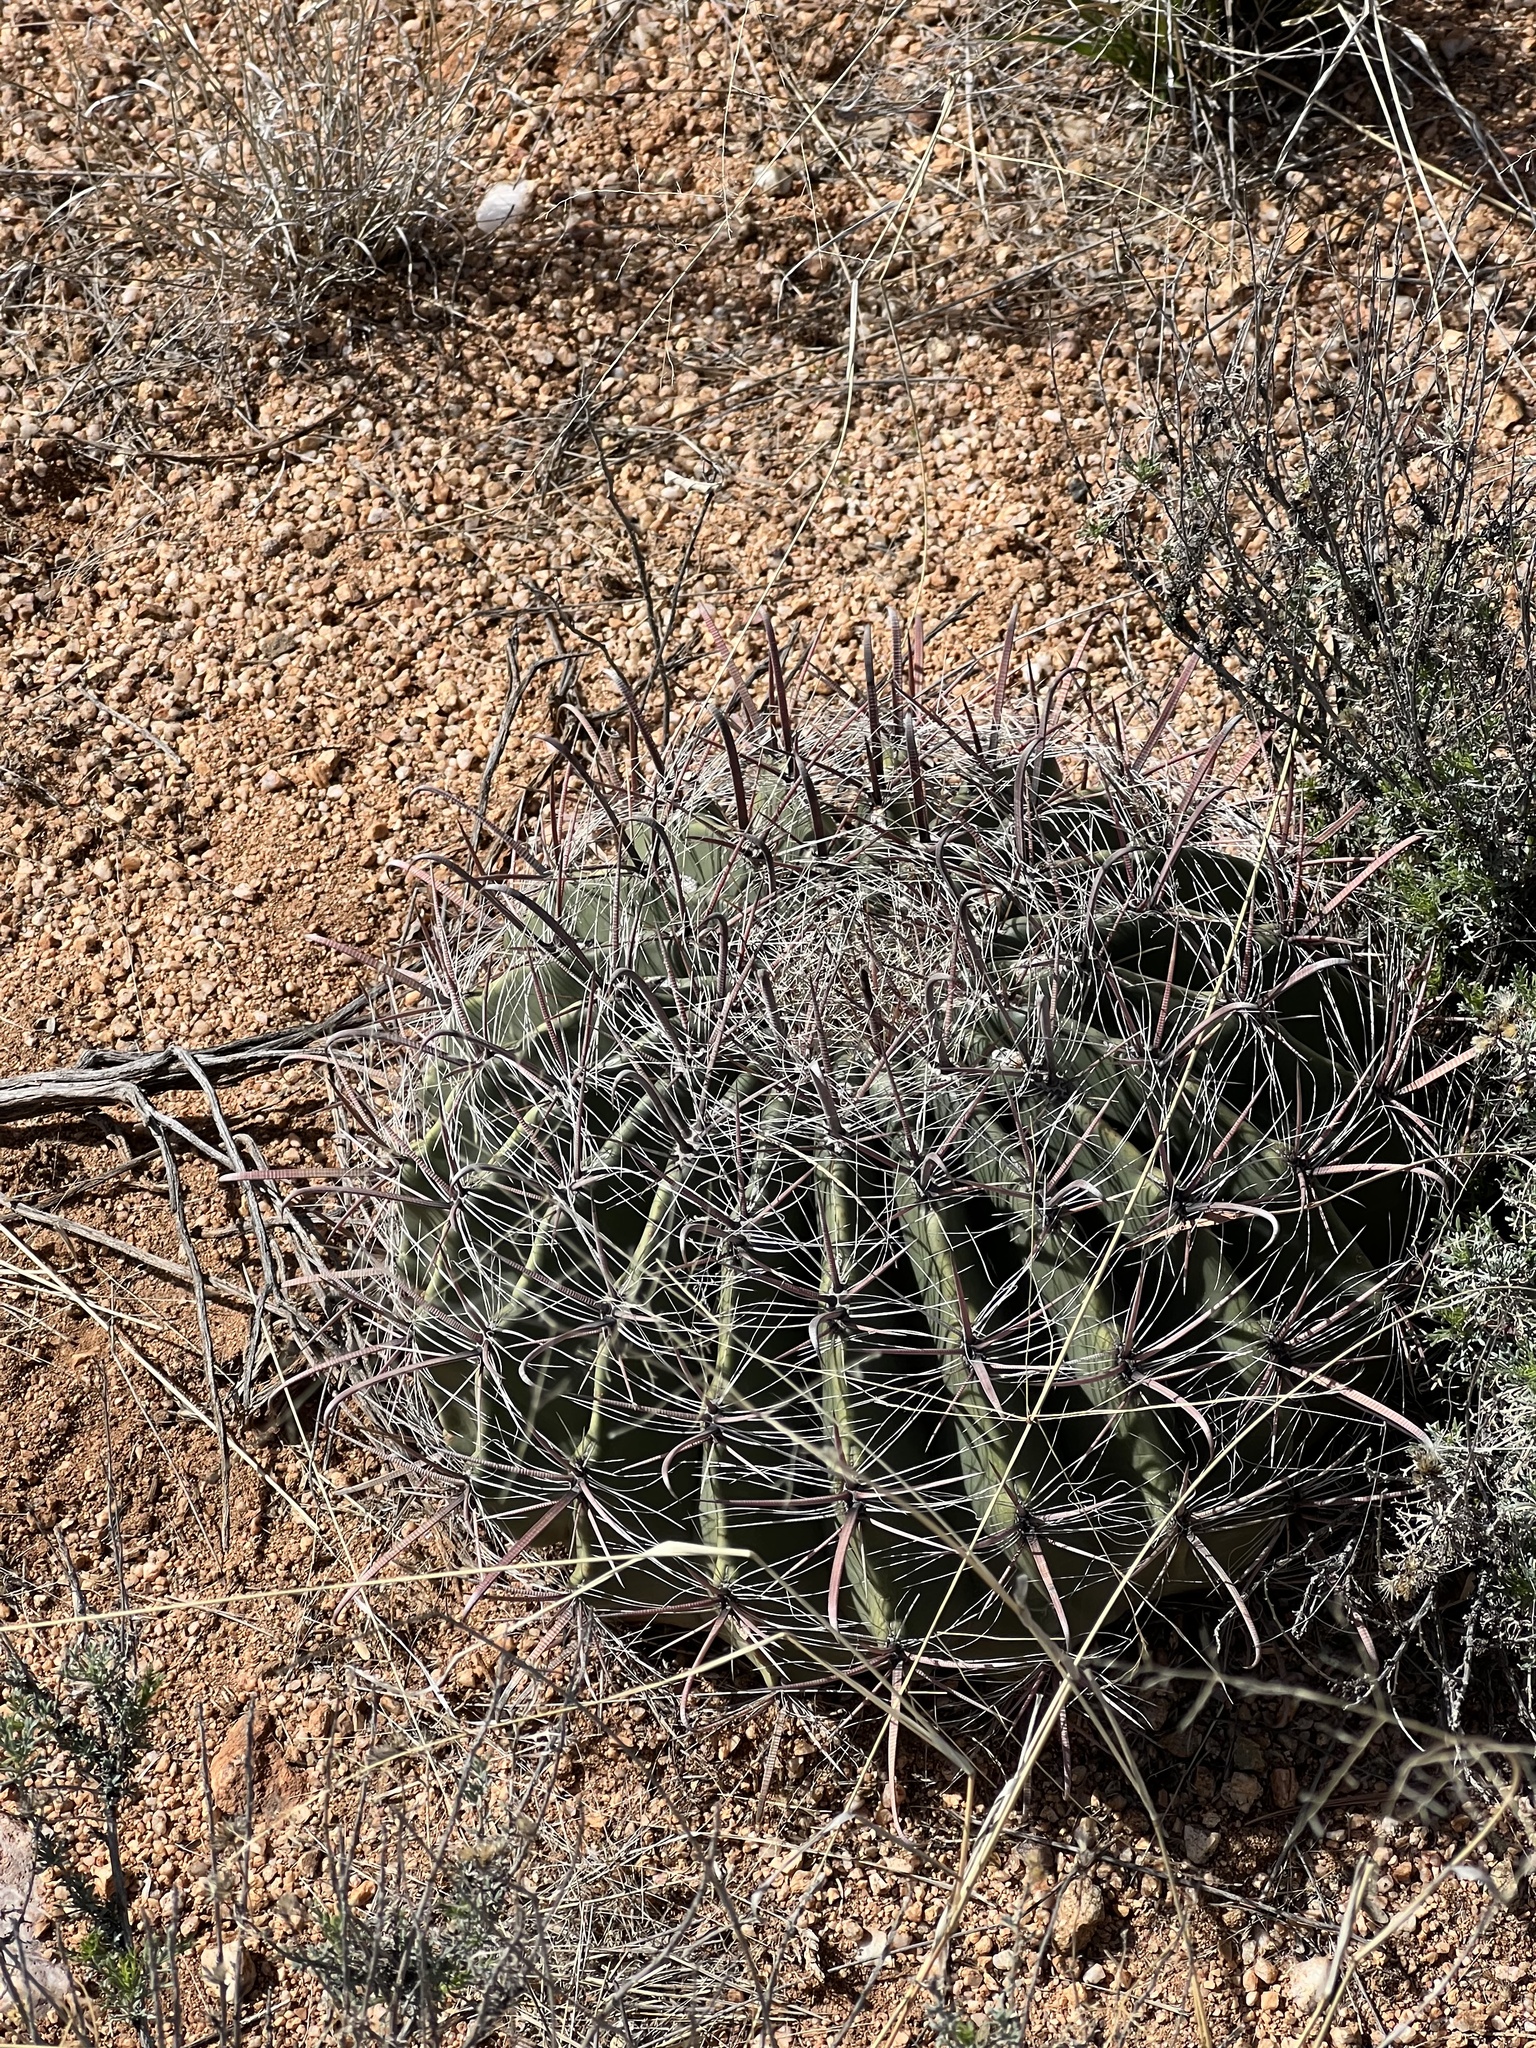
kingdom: Plantae
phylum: Tracheophyta
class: Magnoliopsida
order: Caryophyllales
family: Cactaceae
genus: Ferocactus
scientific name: Ferocactus wislizeni
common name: Candy barrel cactus
